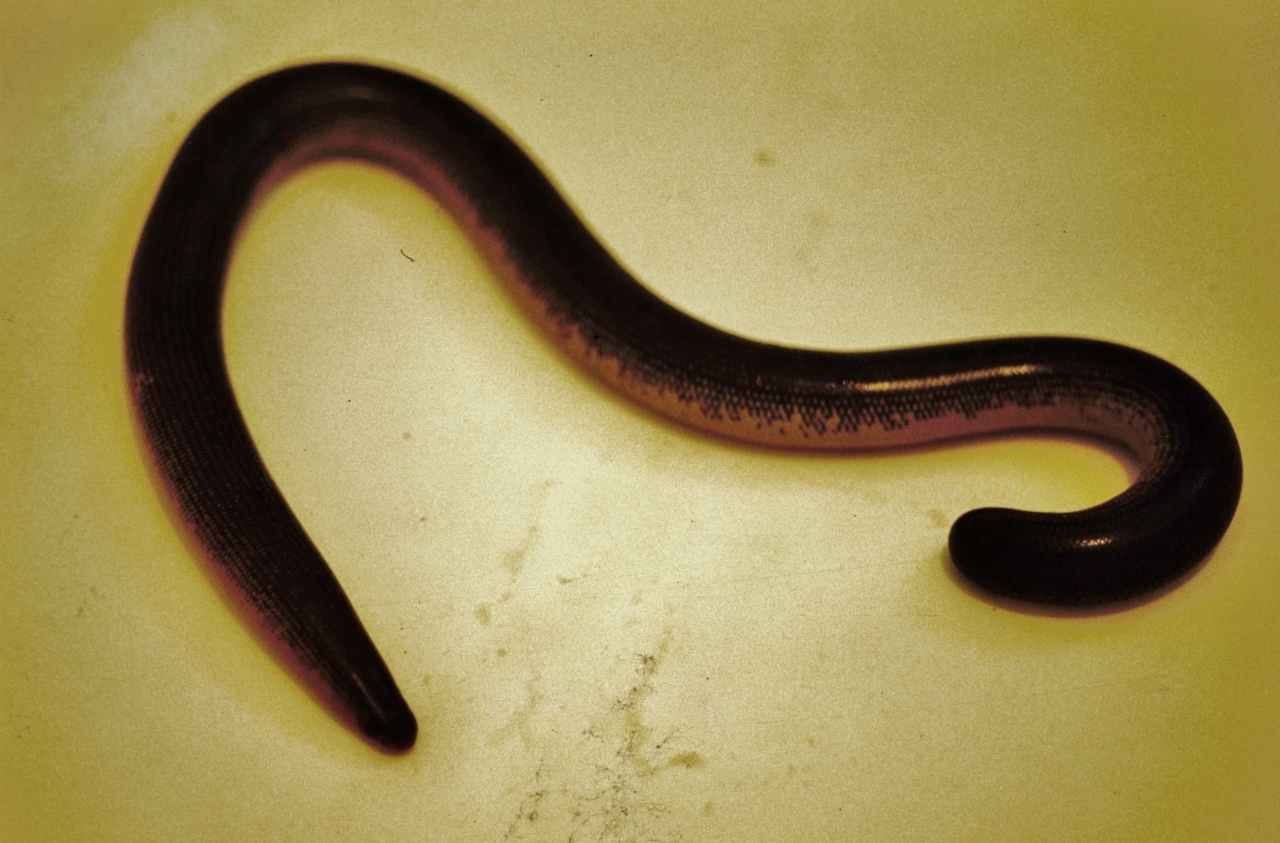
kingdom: Animalia
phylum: Chordata
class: Squamata
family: Typhlopidae
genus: Afrotyphlops
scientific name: Afrotyphlops mucruso
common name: Zambezi blind snake
